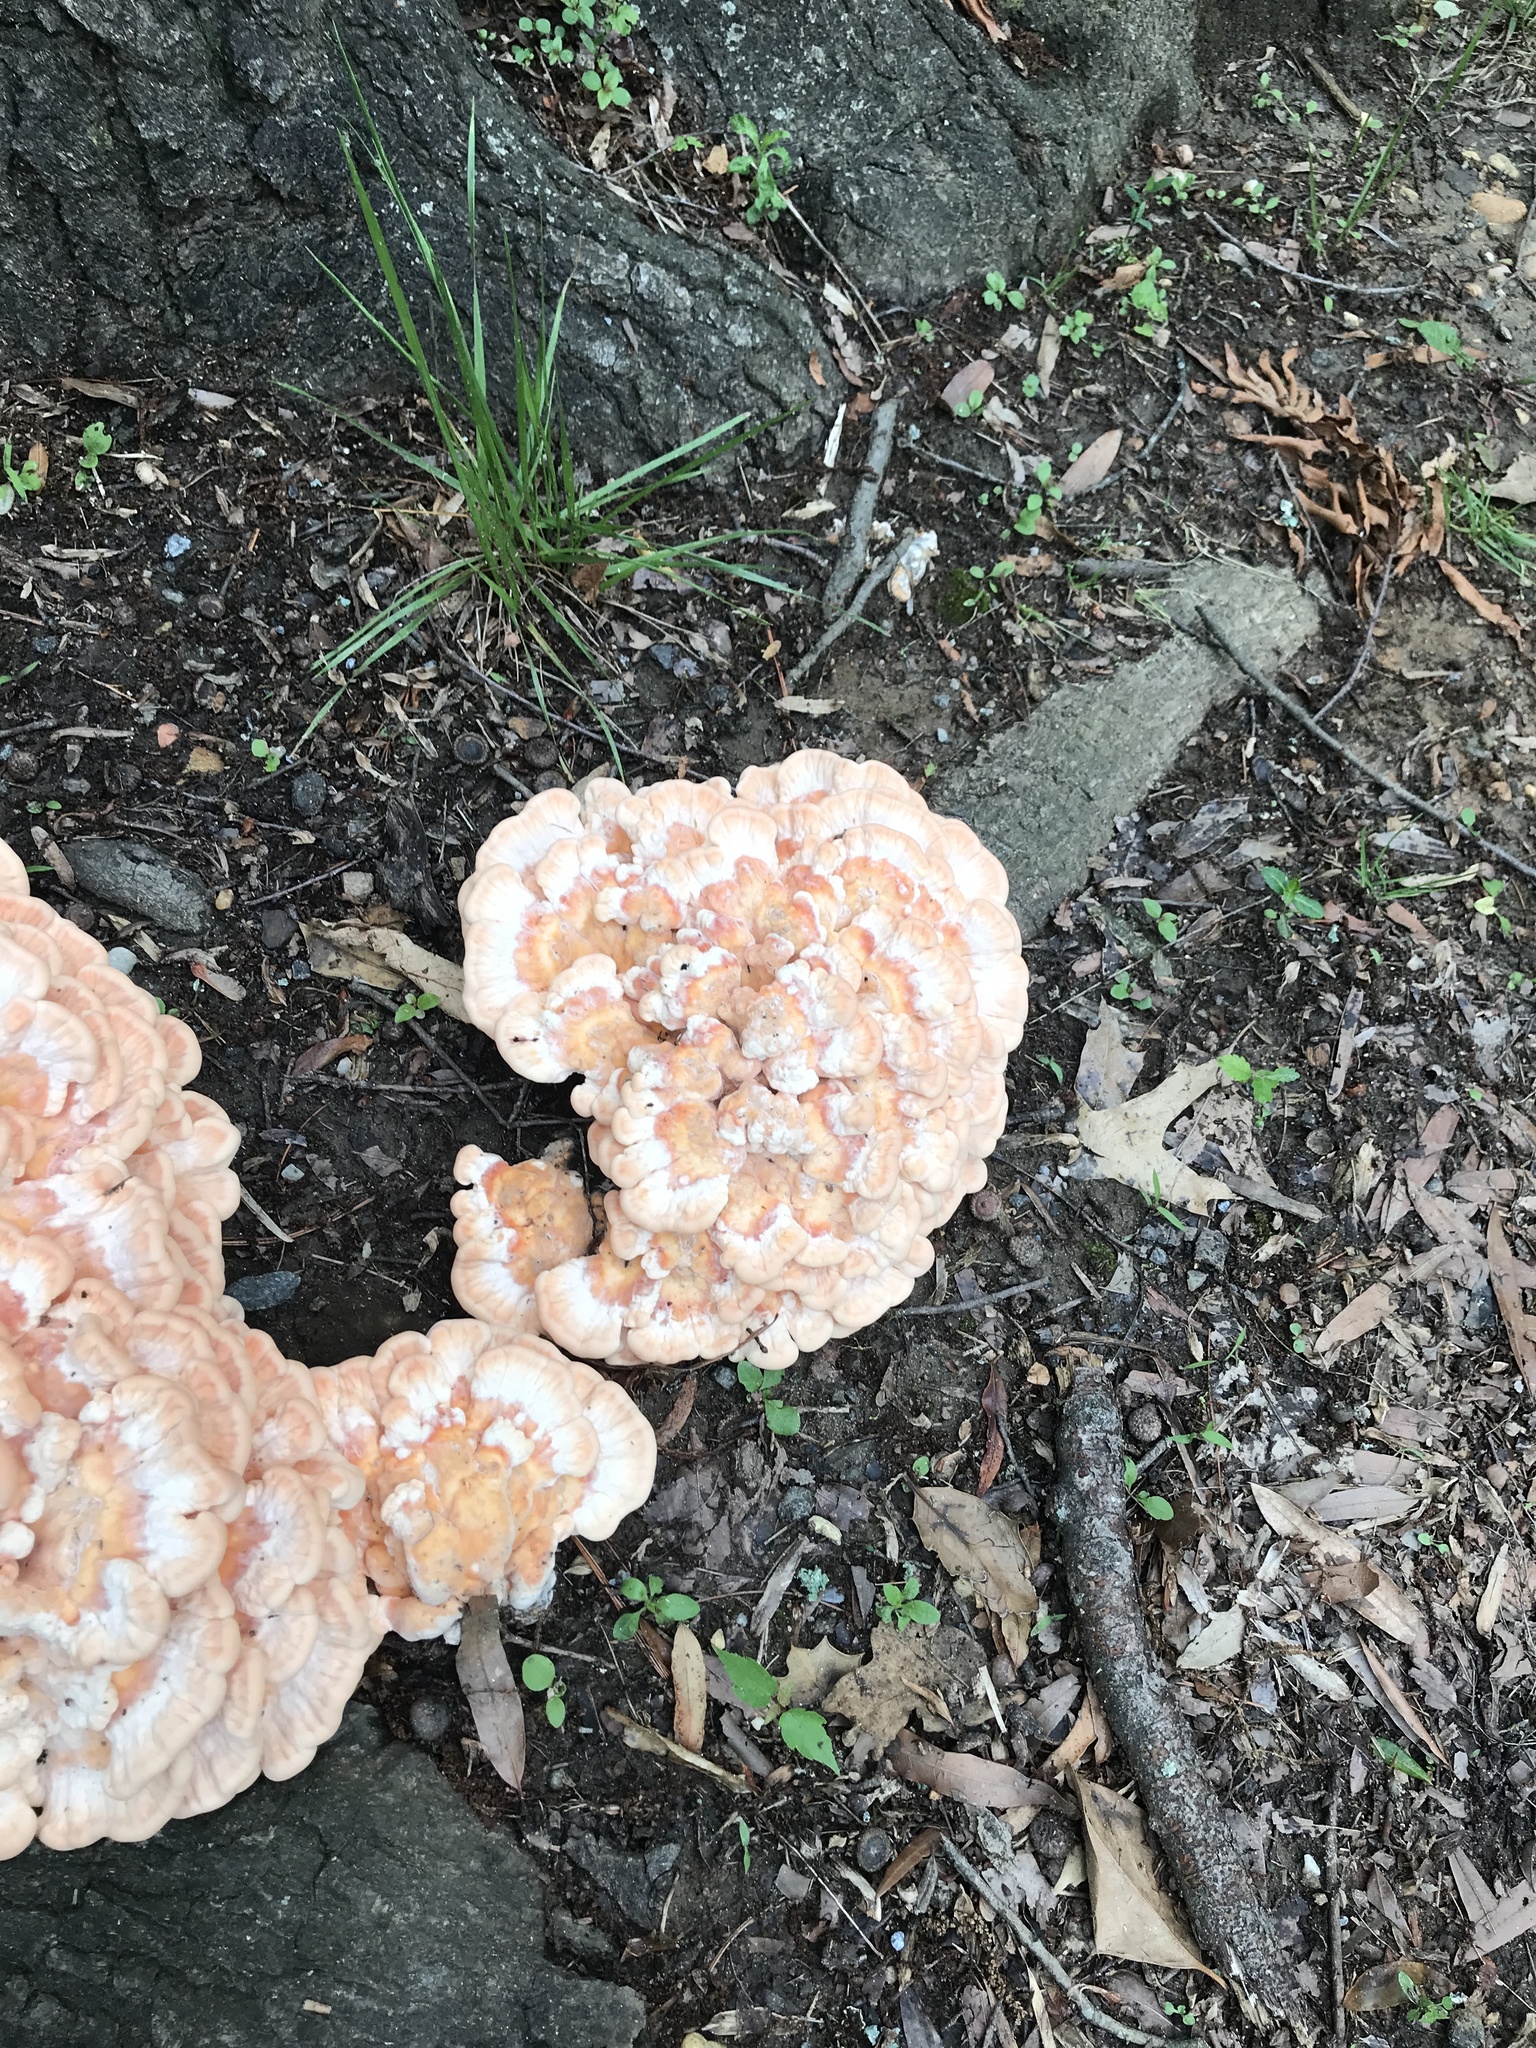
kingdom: Fungi
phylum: Basidiomycota
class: Agaricomycetes
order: Polyporales
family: Laetiporaceae
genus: Laetiporus
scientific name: Laetiporus sulphureus
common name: Chicken of the woods
